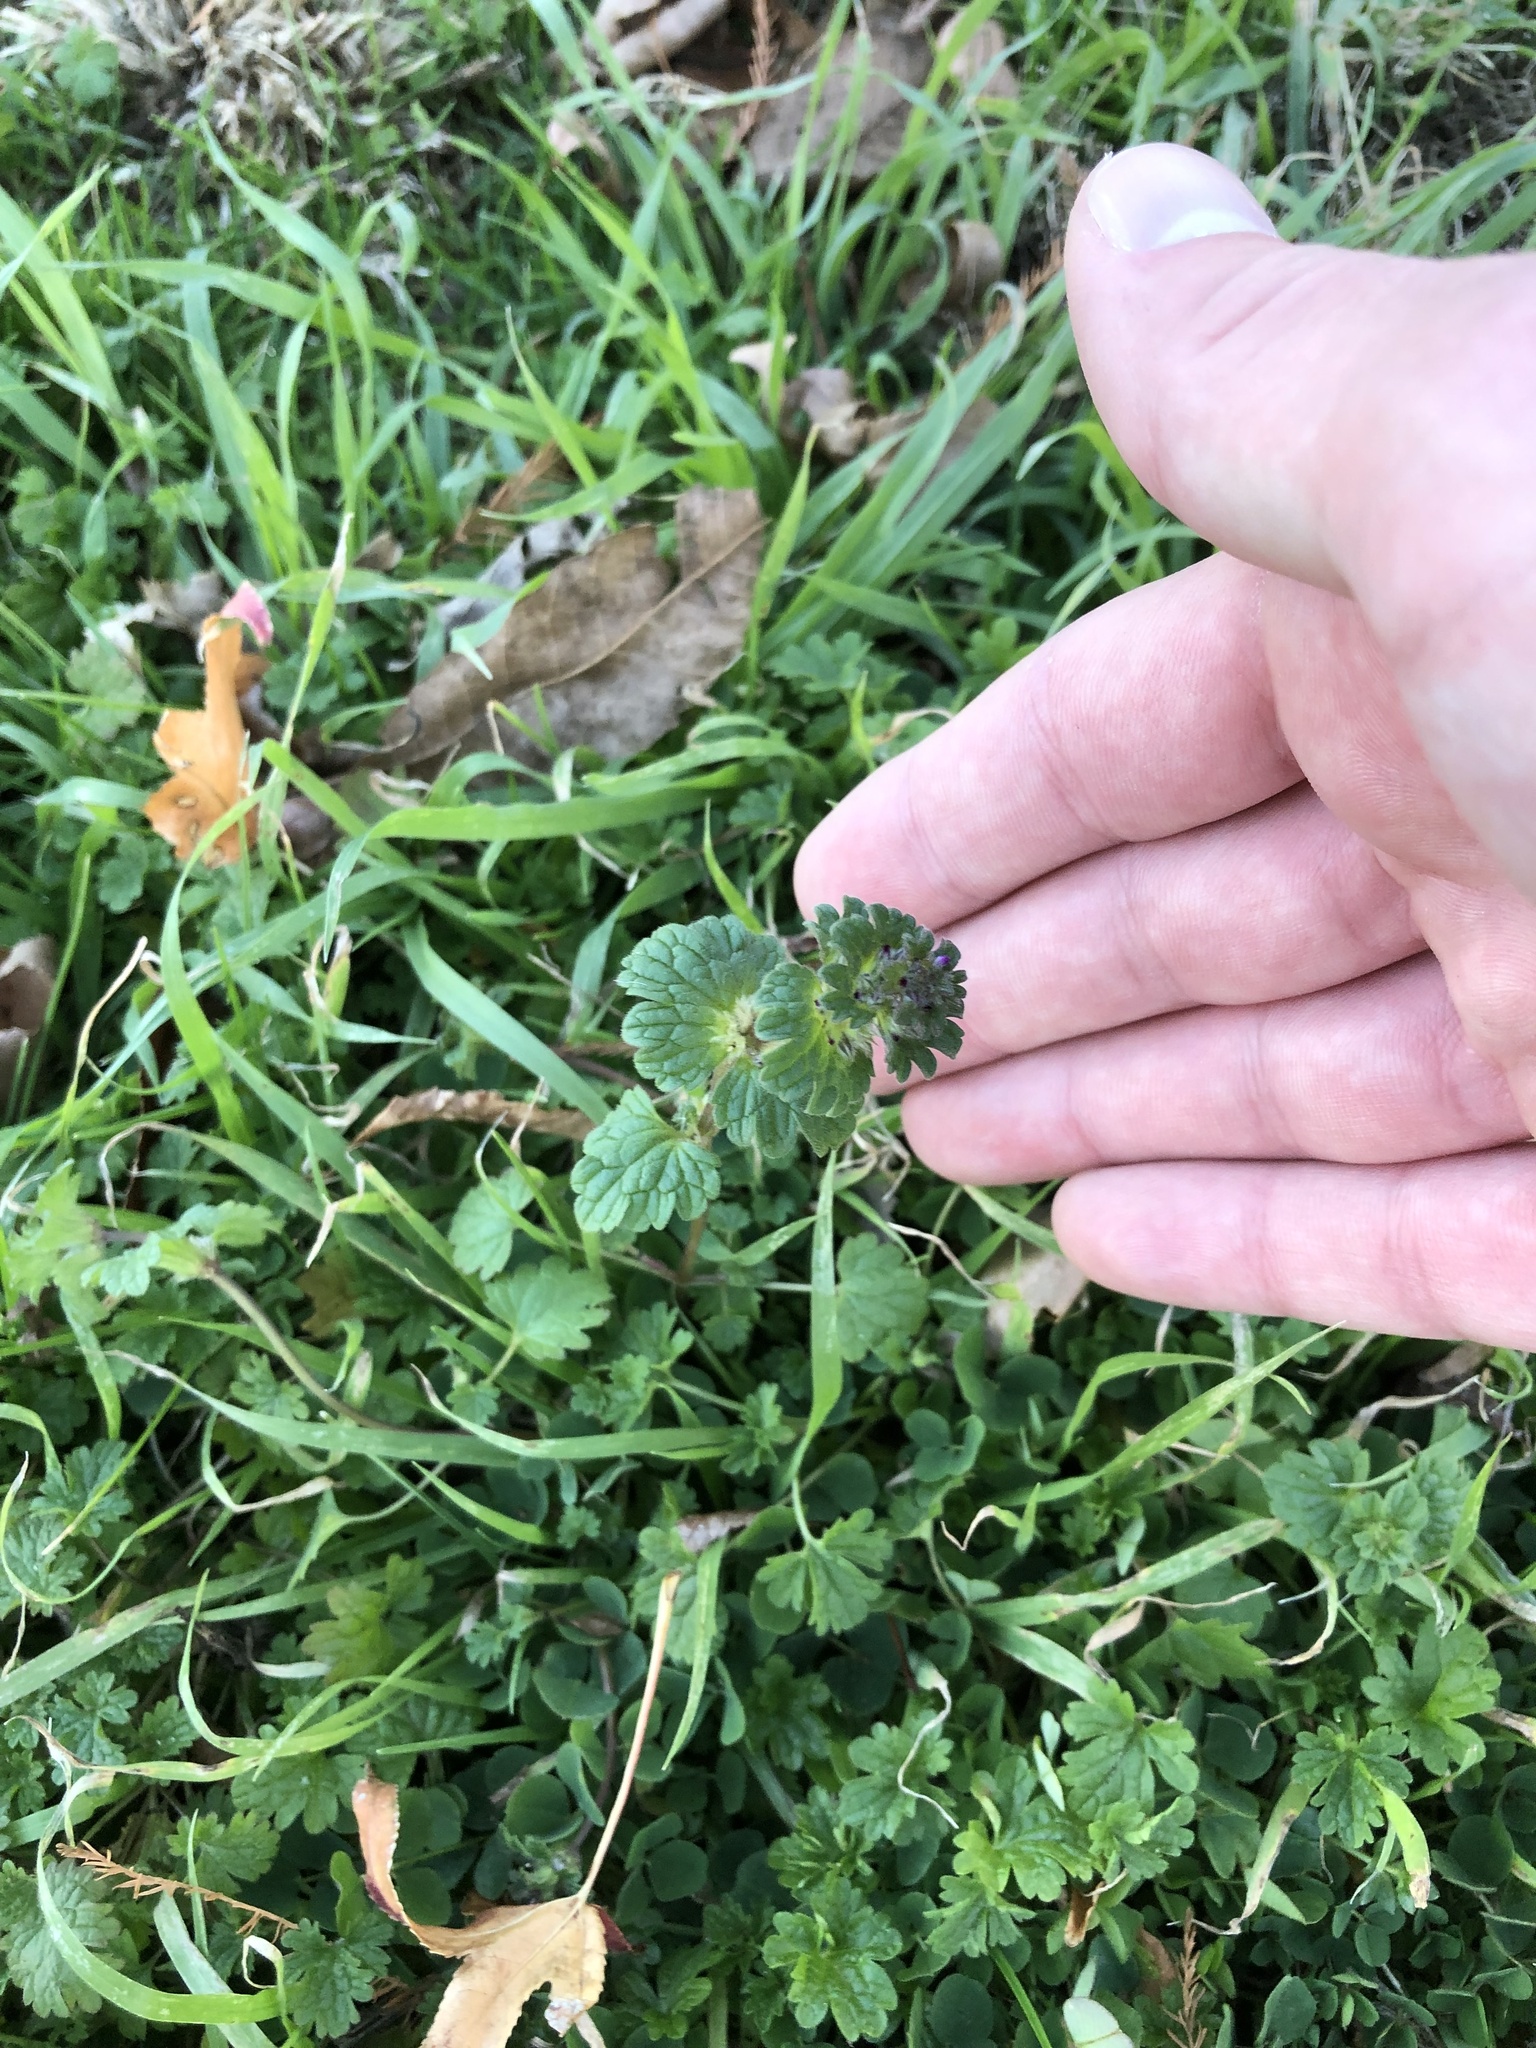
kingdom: Plantae
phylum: Tracheophyta
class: Magnoliopsida
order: Lamiales
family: Lamiaceae
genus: Lamium
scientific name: Lamium amplexicaule
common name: Henbit dead-nettle
